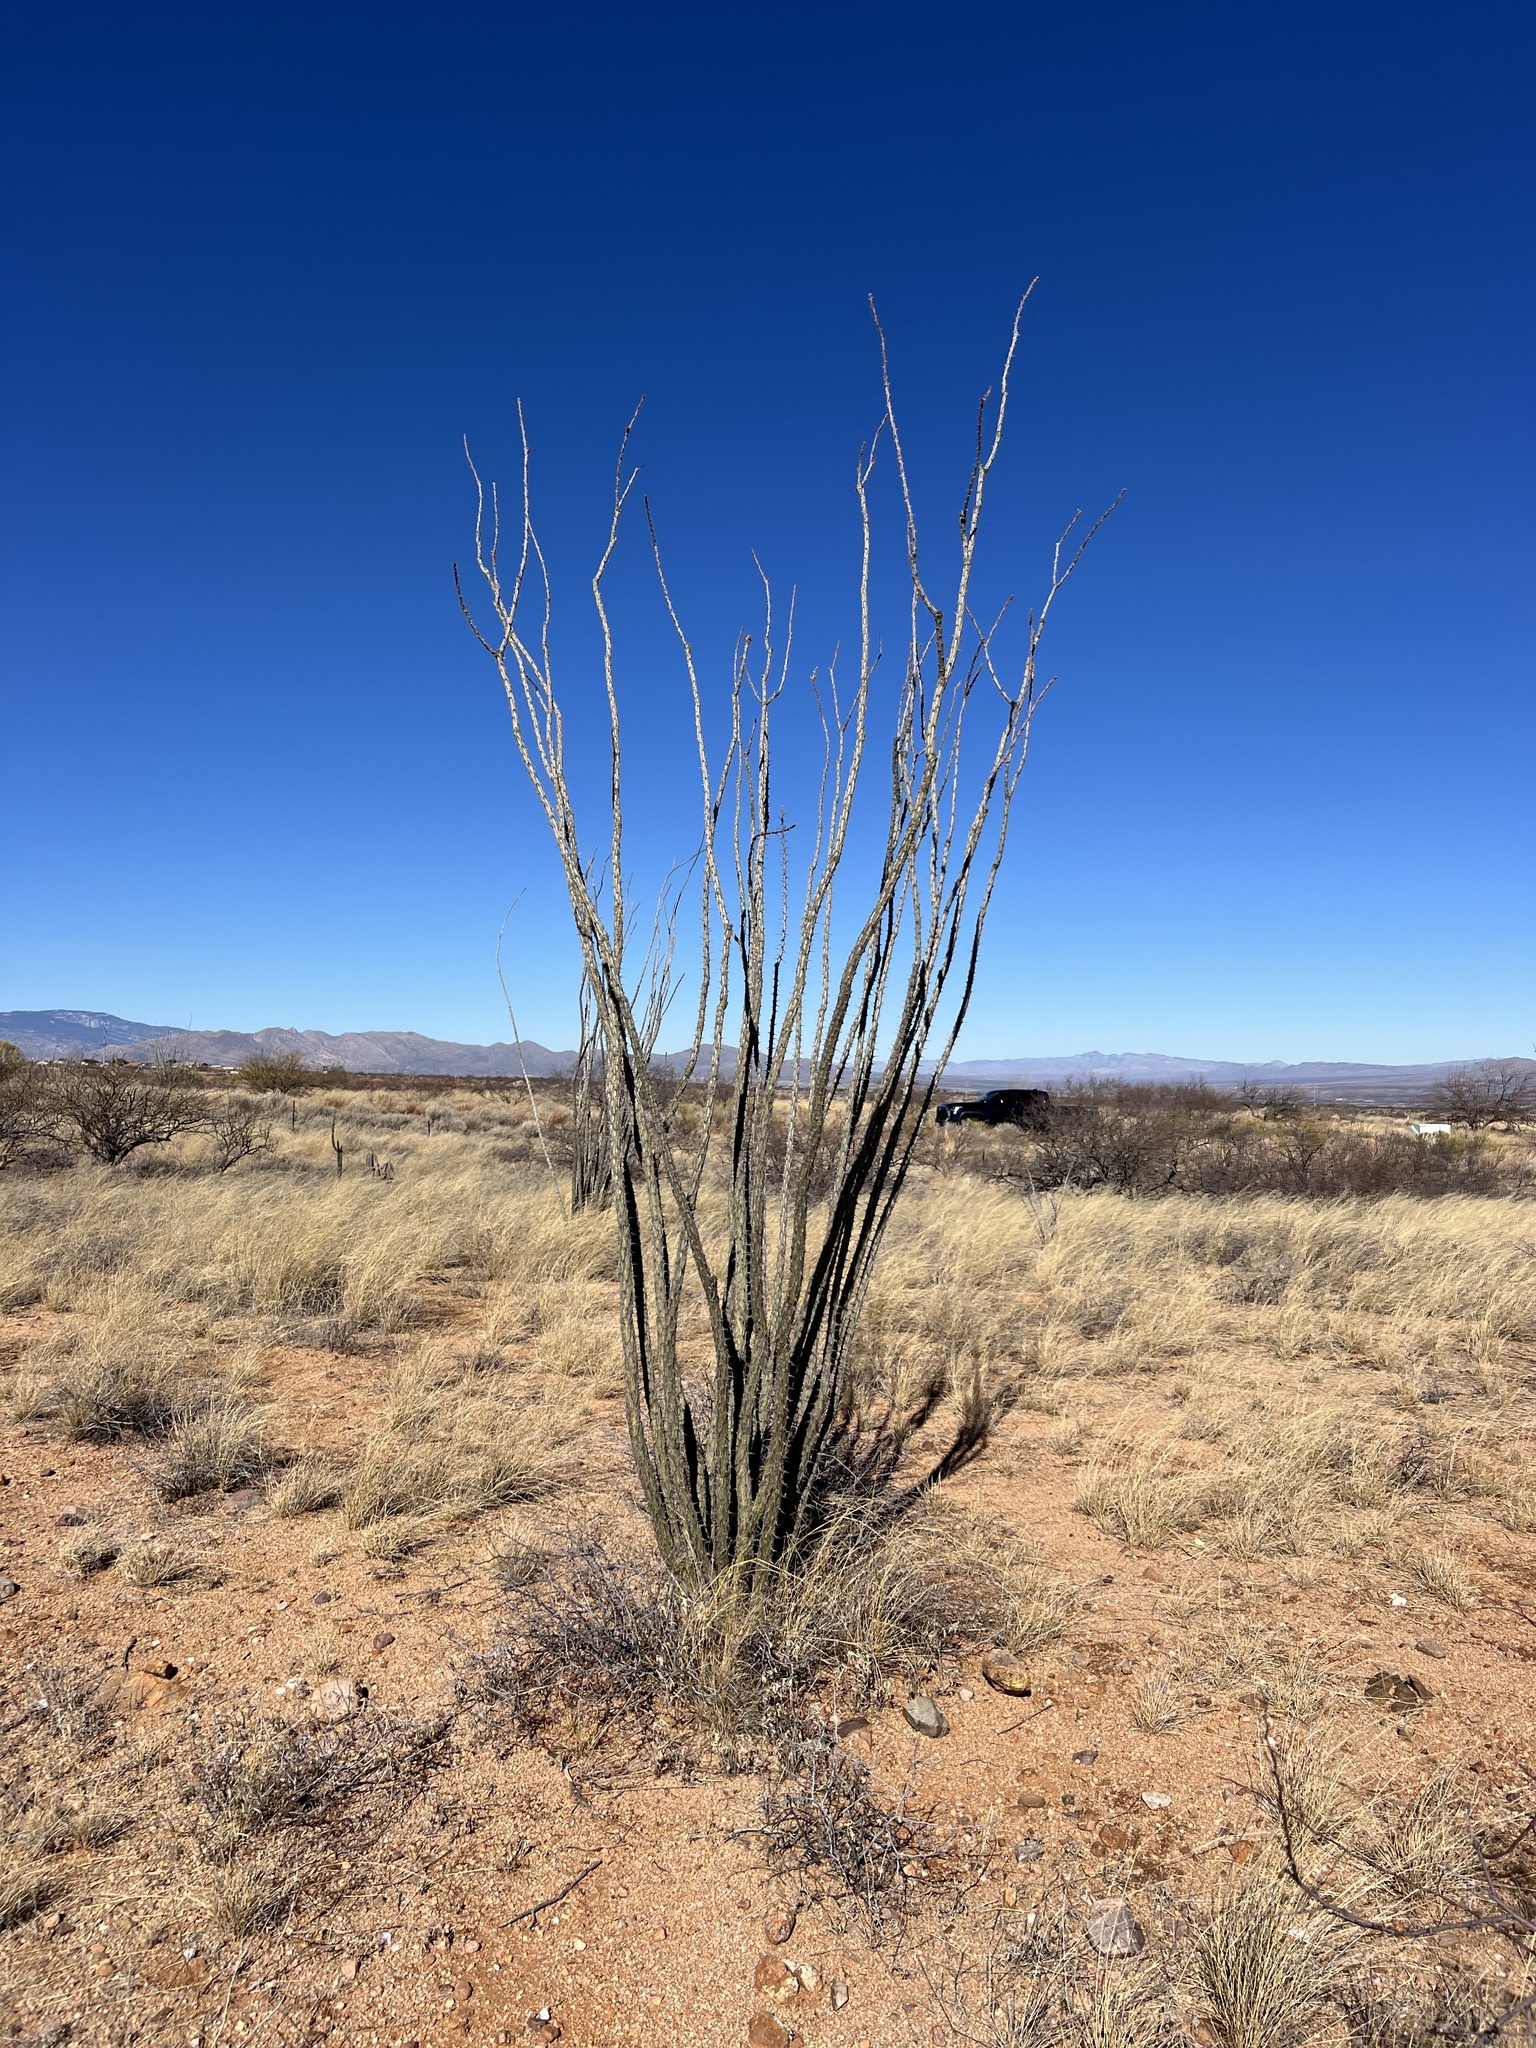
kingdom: Plantae
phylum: Tracheophyta
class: Magnoliopsida
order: Ericales
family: Fouquieriaceae
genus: Fouquieria
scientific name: Fouquieria splendens
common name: Vine-cactus
